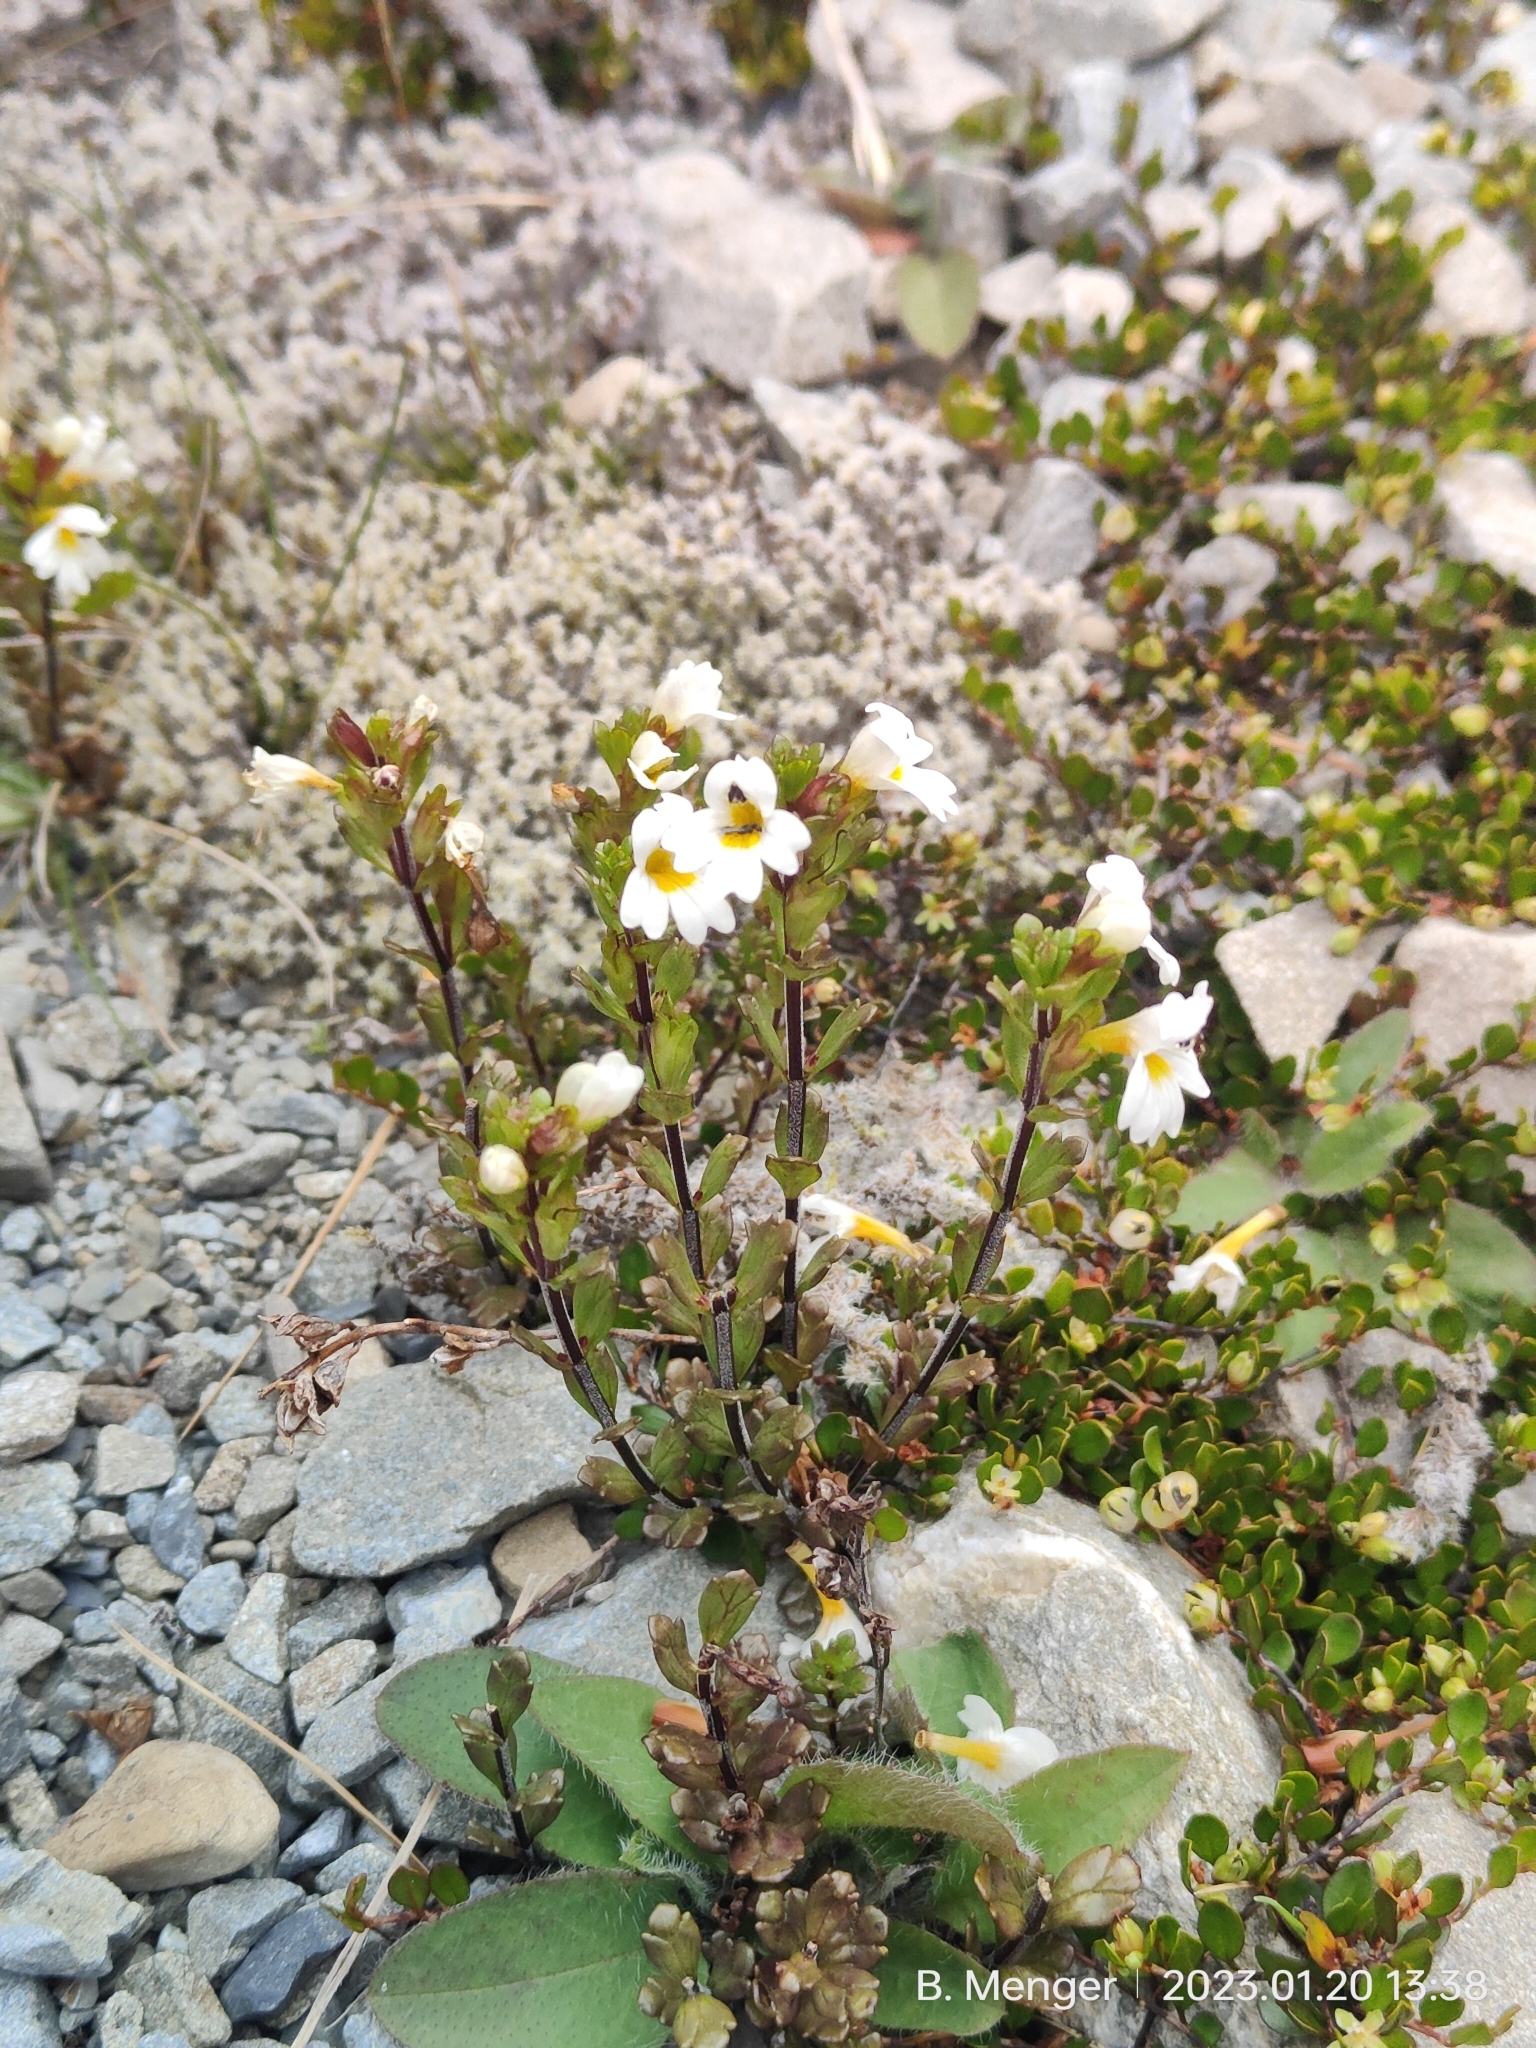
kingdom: Plantae
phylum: Tracheophyta
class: Magnoliopsida
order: Lamiales
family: Orobanchaceae
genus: Euphrasia
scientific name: Euphrasia laingii
